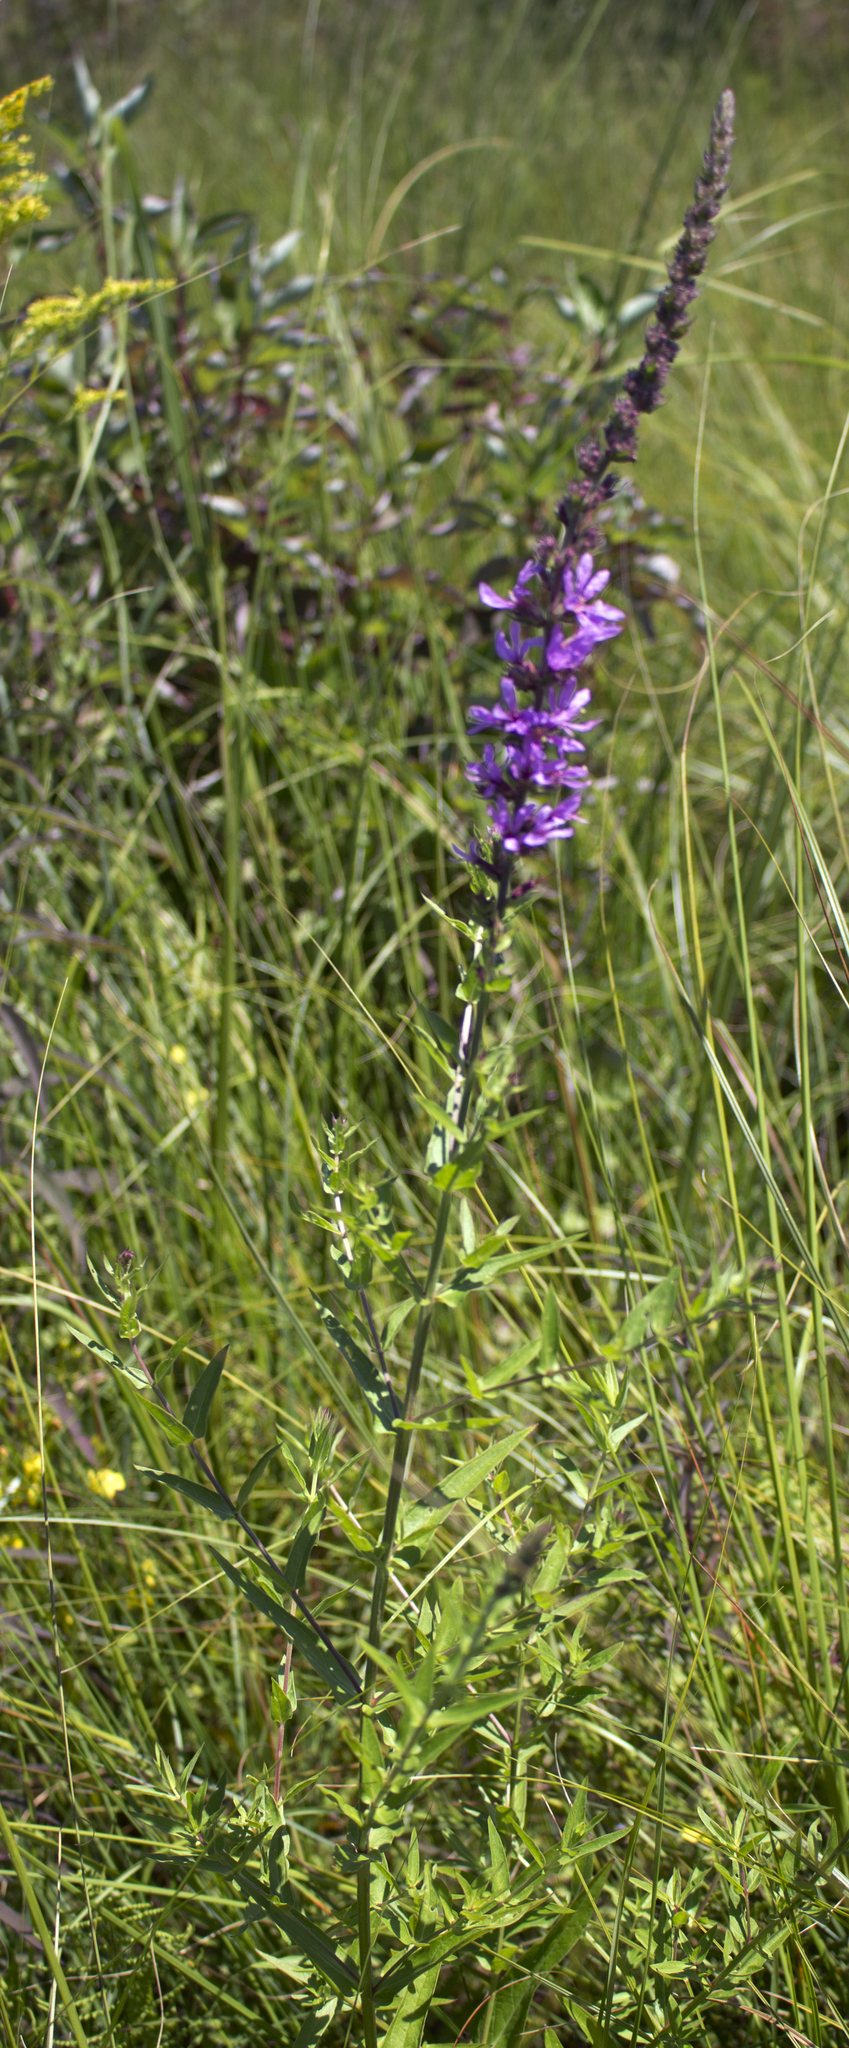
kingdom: Plantae
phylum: Tracheophyta
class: Magnoliopsida
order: Myrtales
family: Lythraceae
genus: Lythrum
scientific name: Lythrum salicaria
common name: Purple loosestrife
